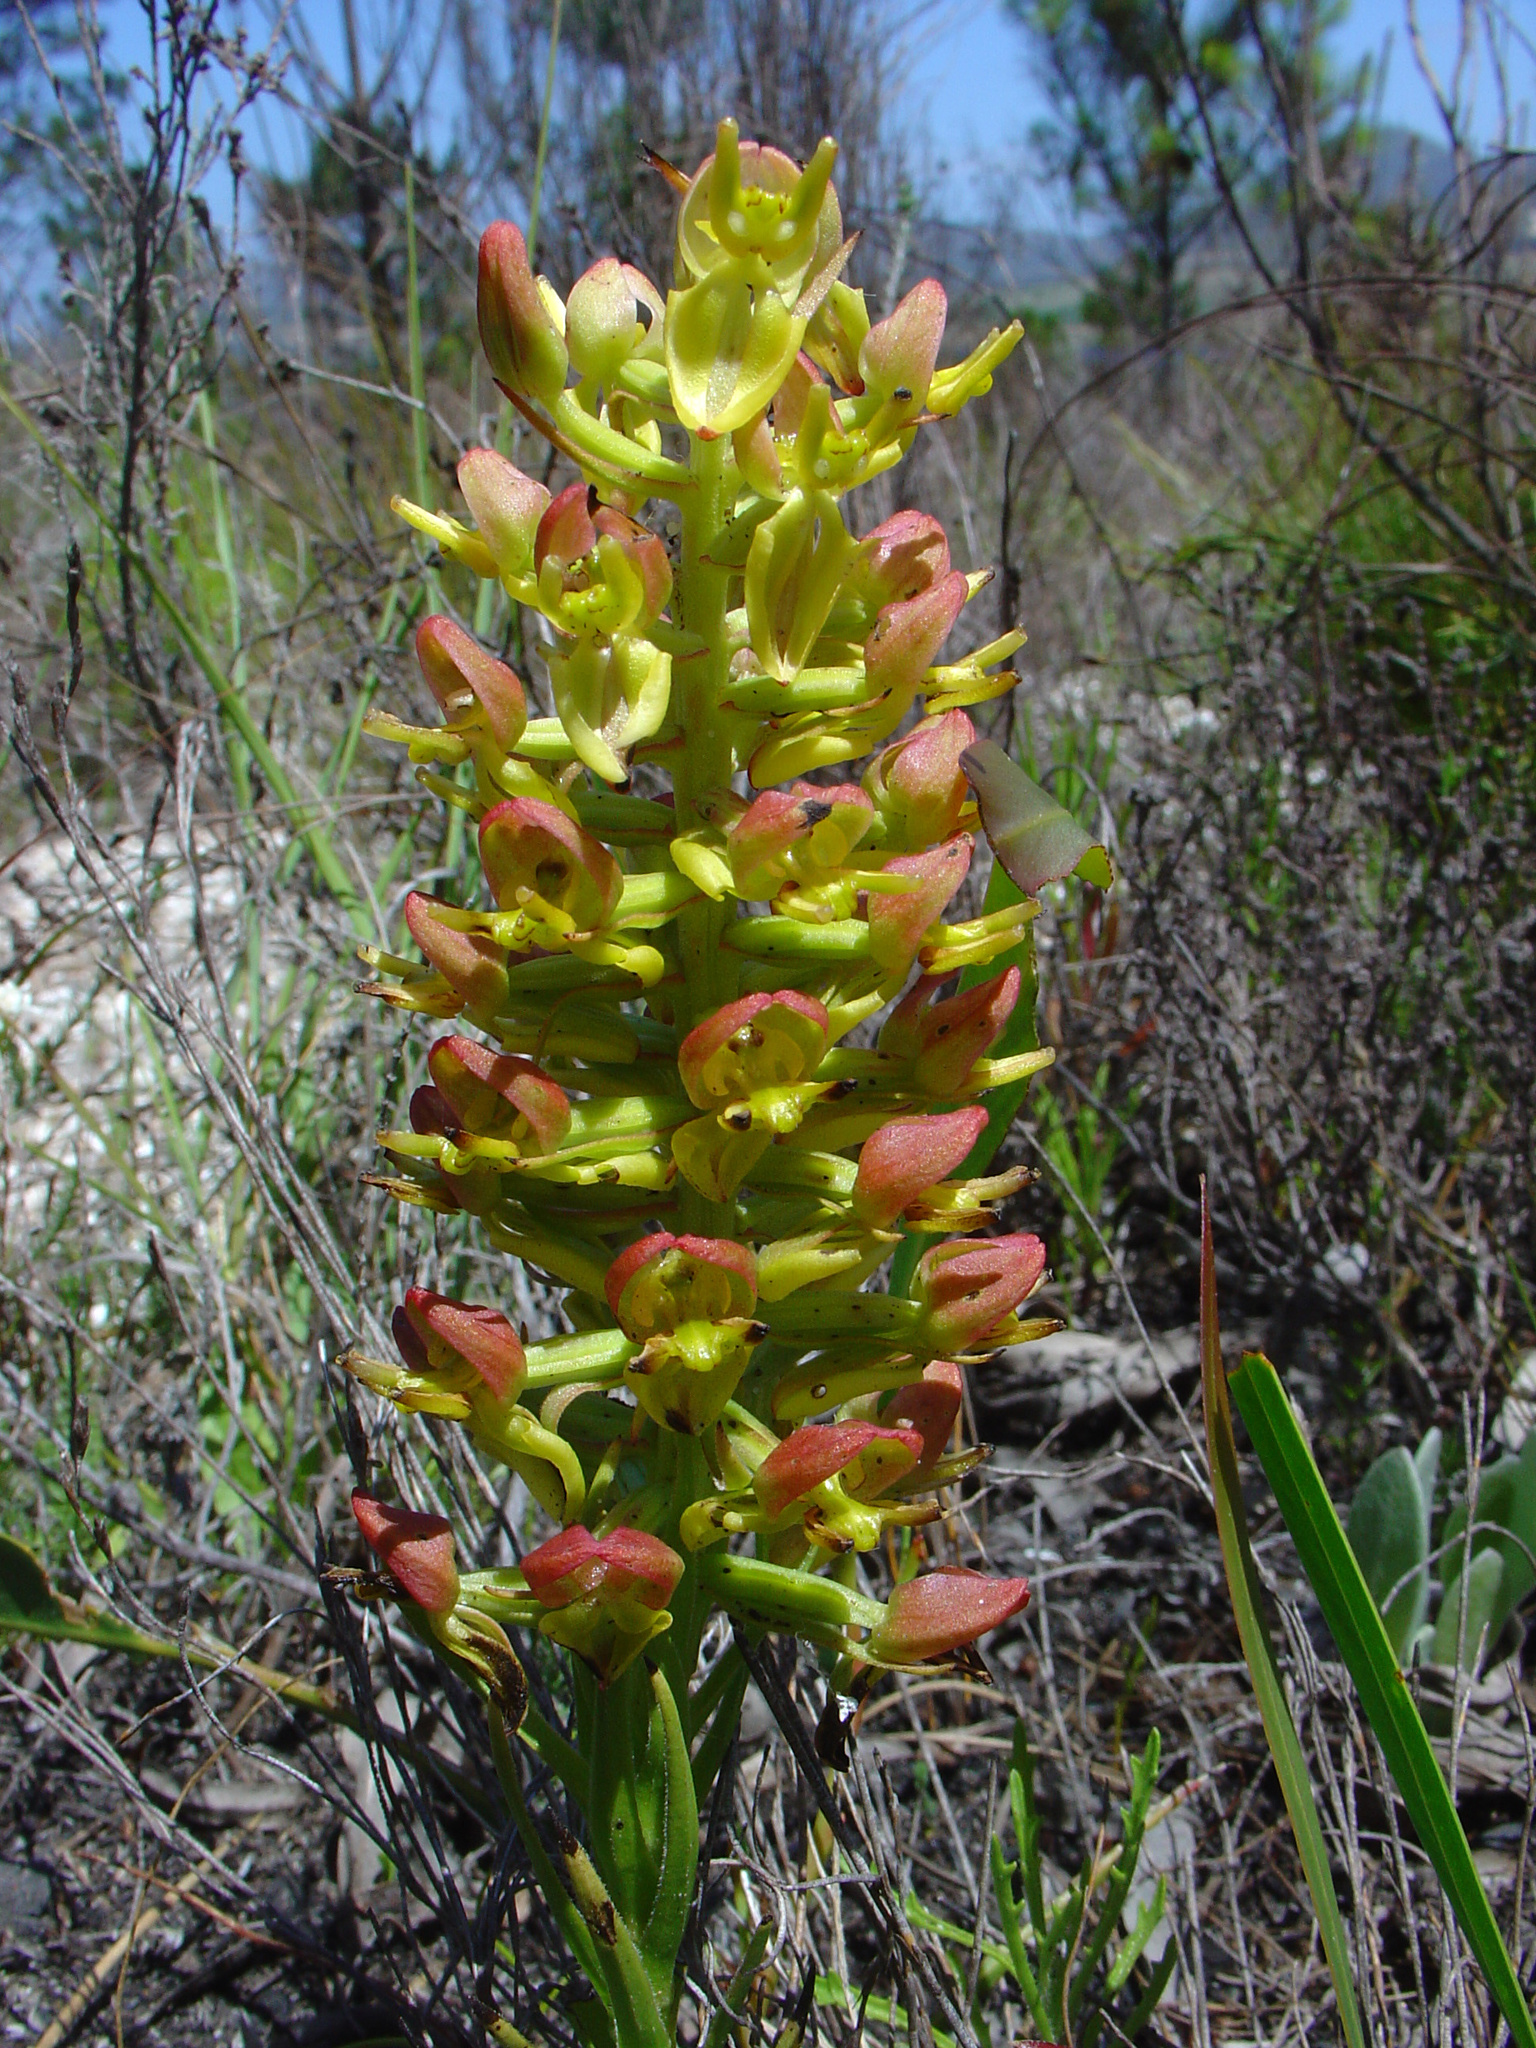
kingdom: Plantae
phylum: Tracheophyta
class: Liliopsida
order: Asparagales
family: Orchidaceae
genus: Ceratandra
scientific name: Ceratandra atrata
